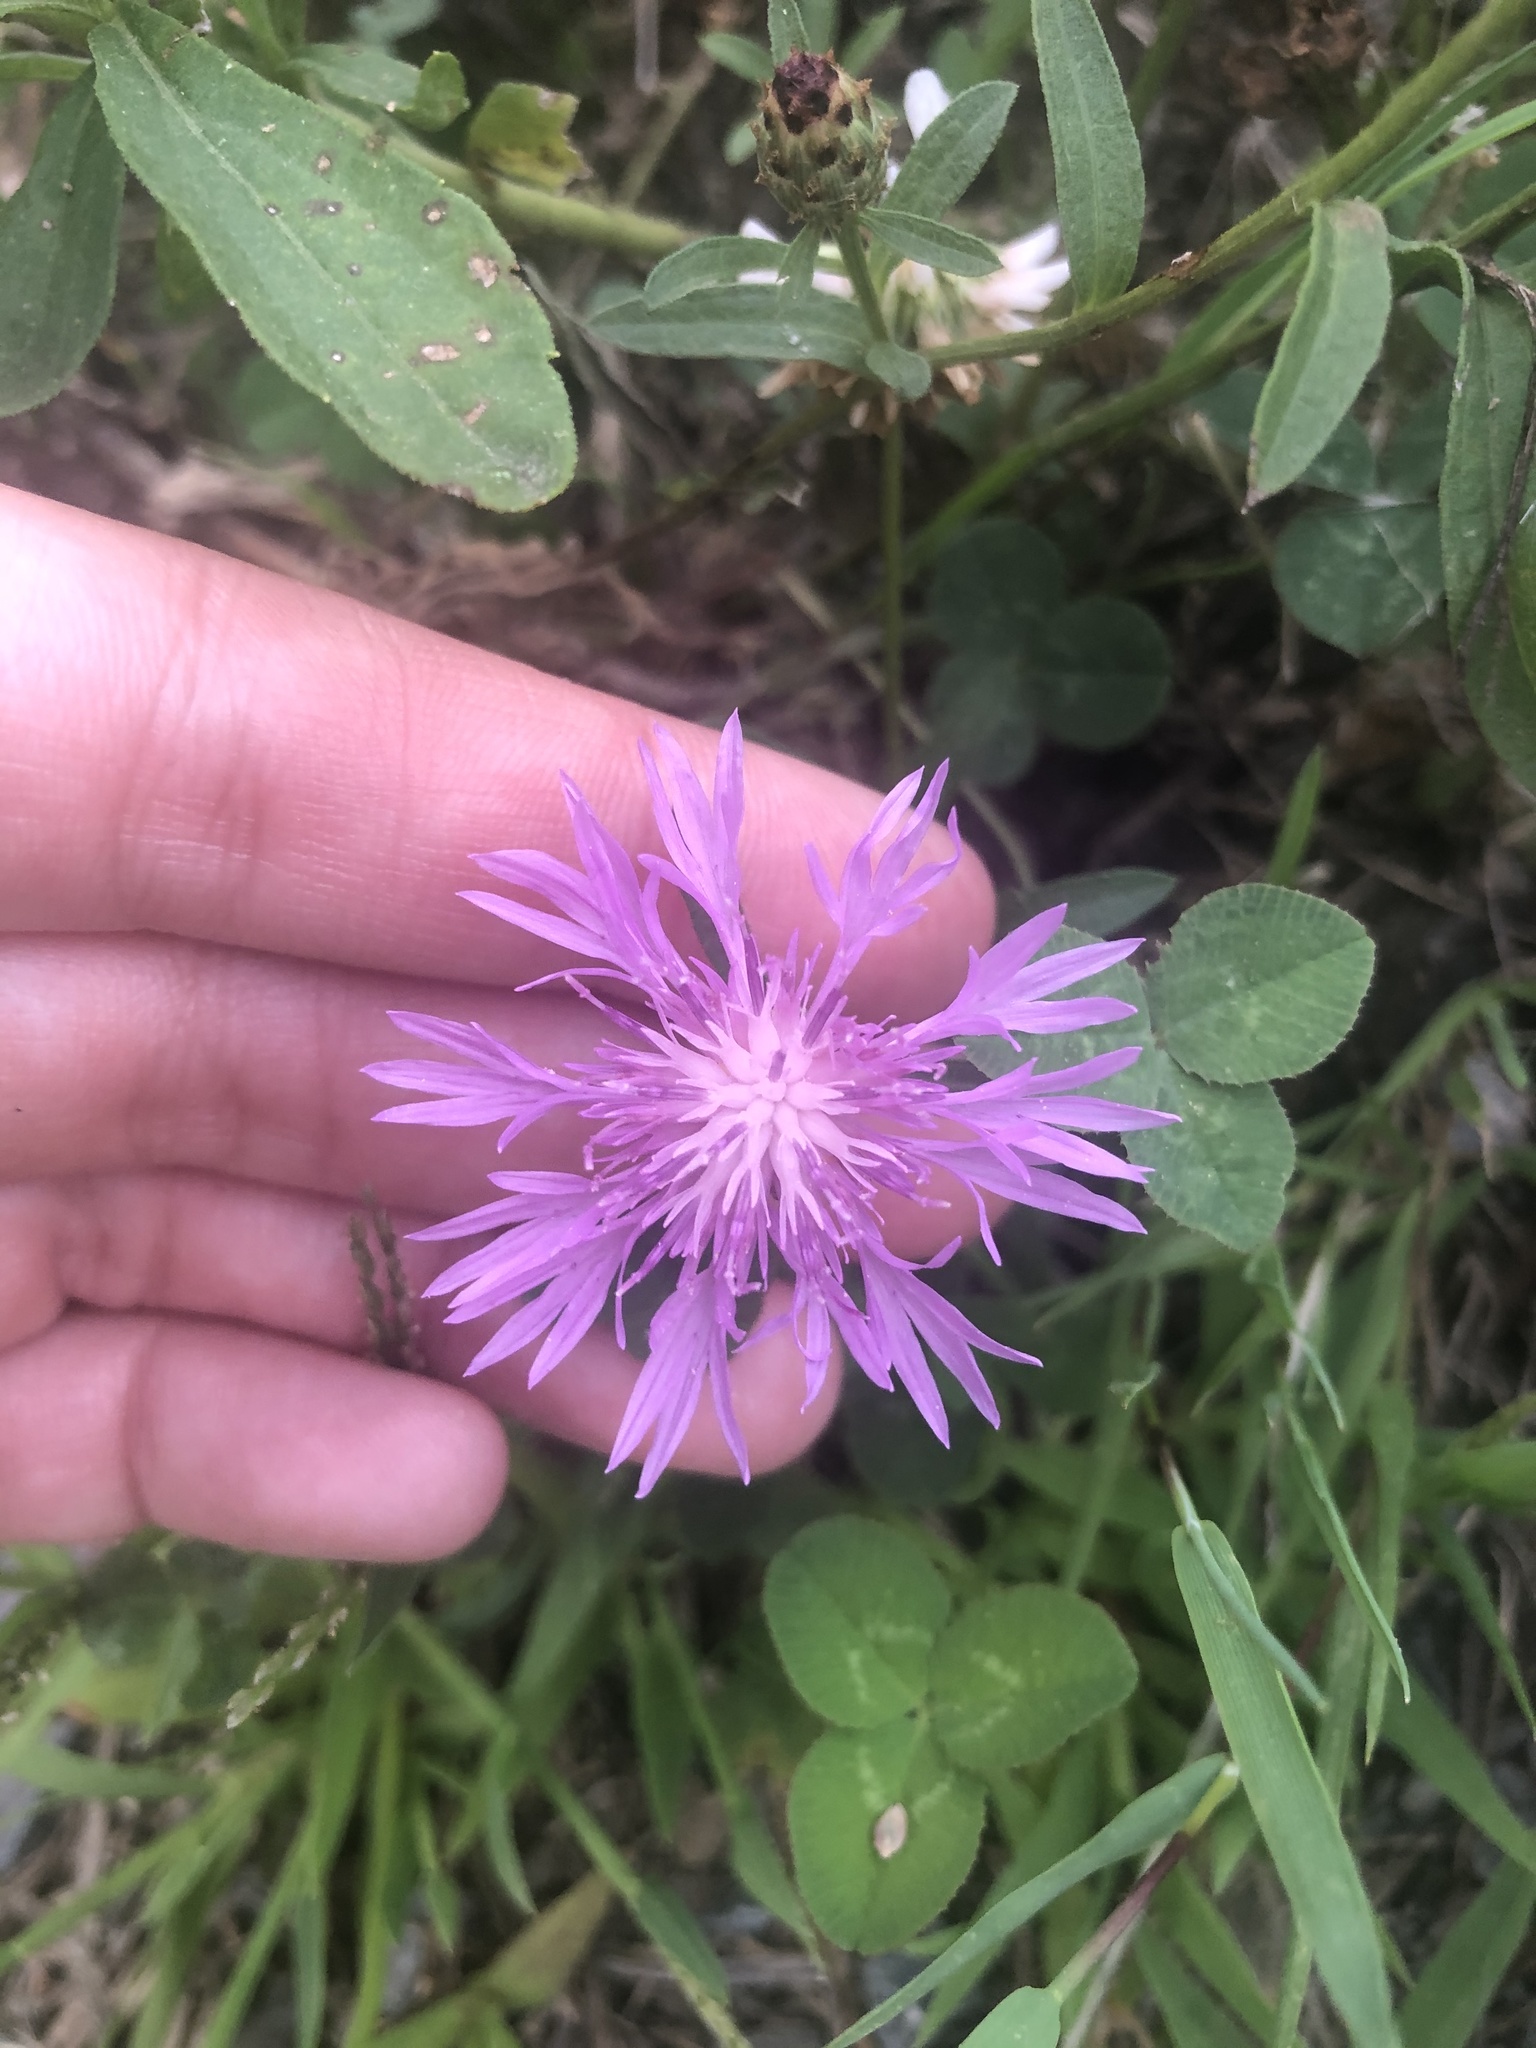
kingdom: Plantae
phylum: Tracheophyta
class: Magnoliopsida
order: Asterales
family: Asteraceae
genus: Centaurea
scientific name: Centaurea nigrescens
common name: Tyrol knapweed
